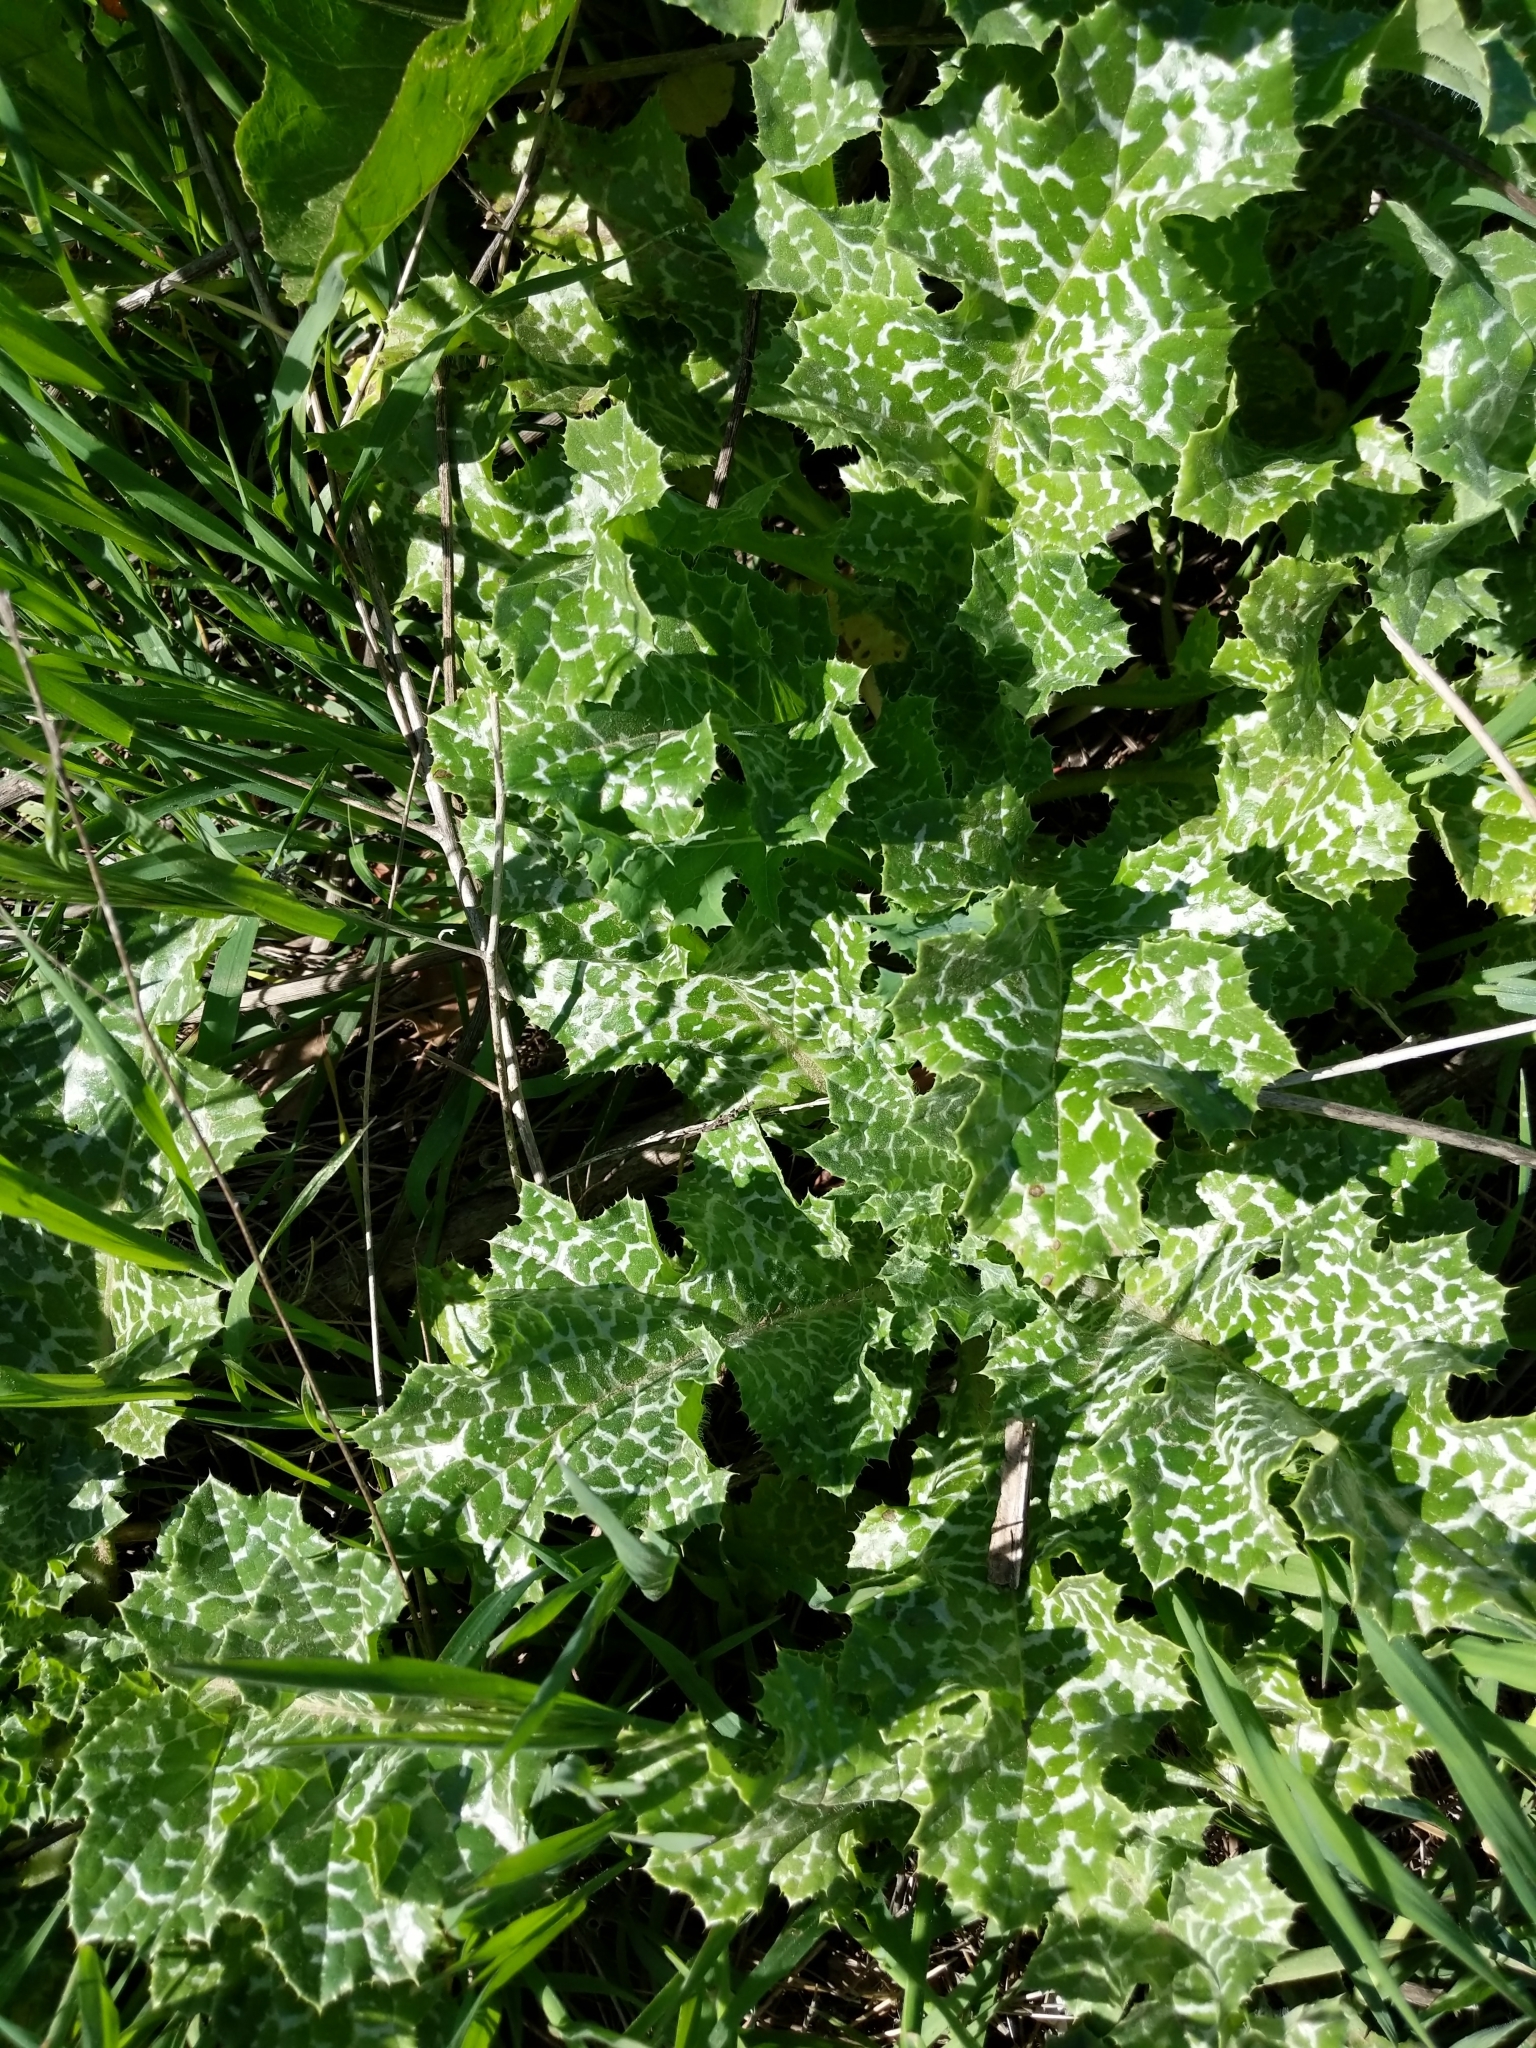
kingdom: Plantae
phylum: Tracheophyta
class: Magnoliopsida
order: Asterales
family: Asteraceae
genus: Silybum
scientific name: Silybum marianum
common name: Milk thistle
